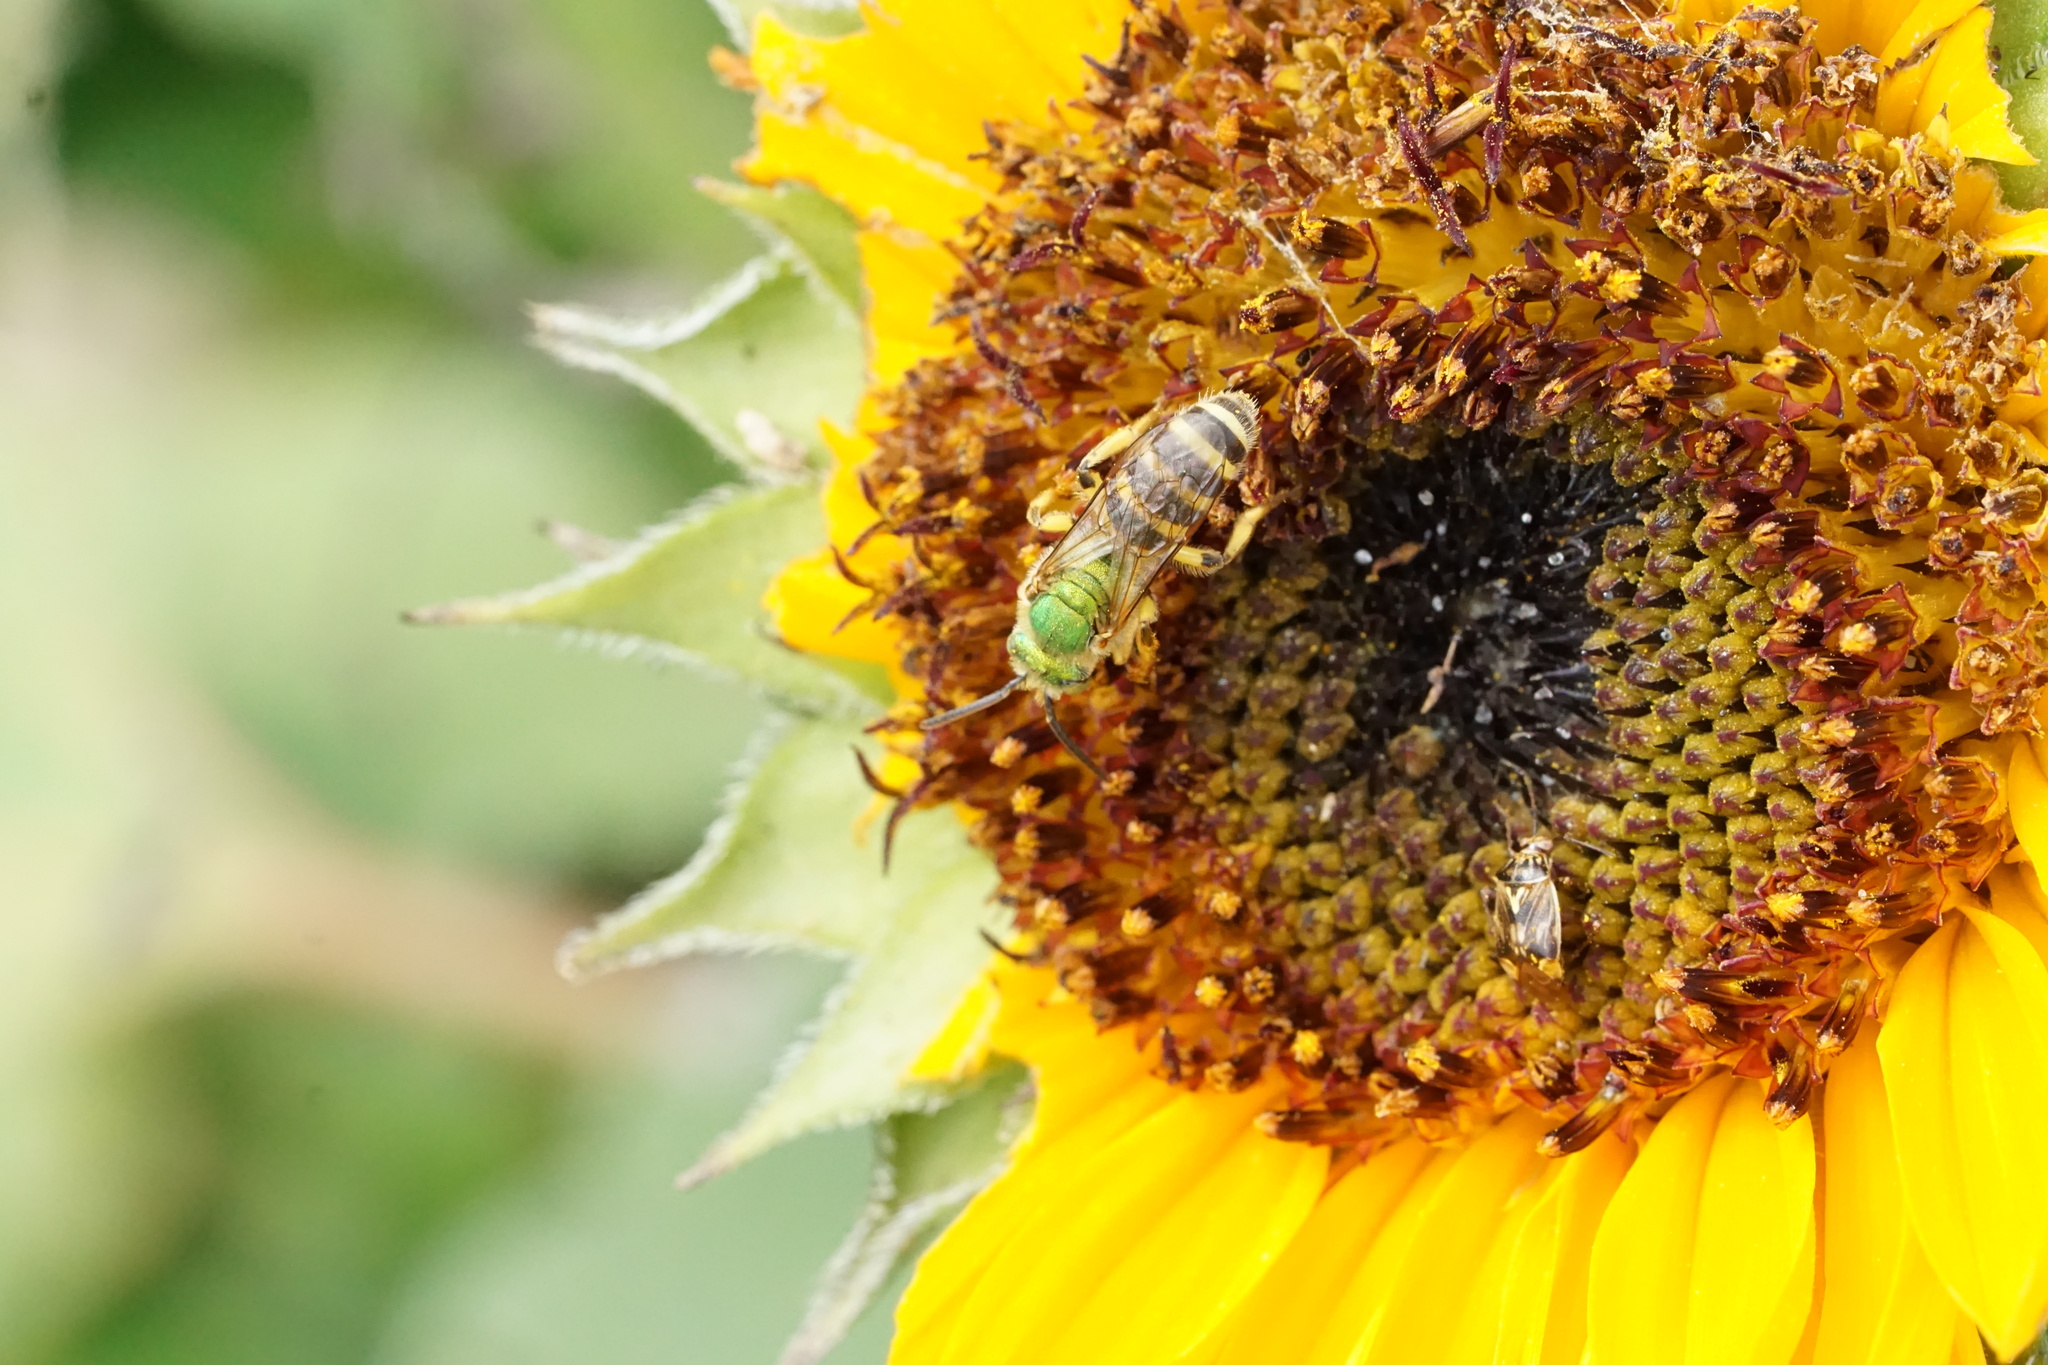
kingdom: Animalia
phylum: Arthropoda
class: Insecta
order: Hymenoptera
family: Halictidae
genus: Agapostemon
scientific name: Agapostemon virescens
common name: Bicolored striped sweat bee
